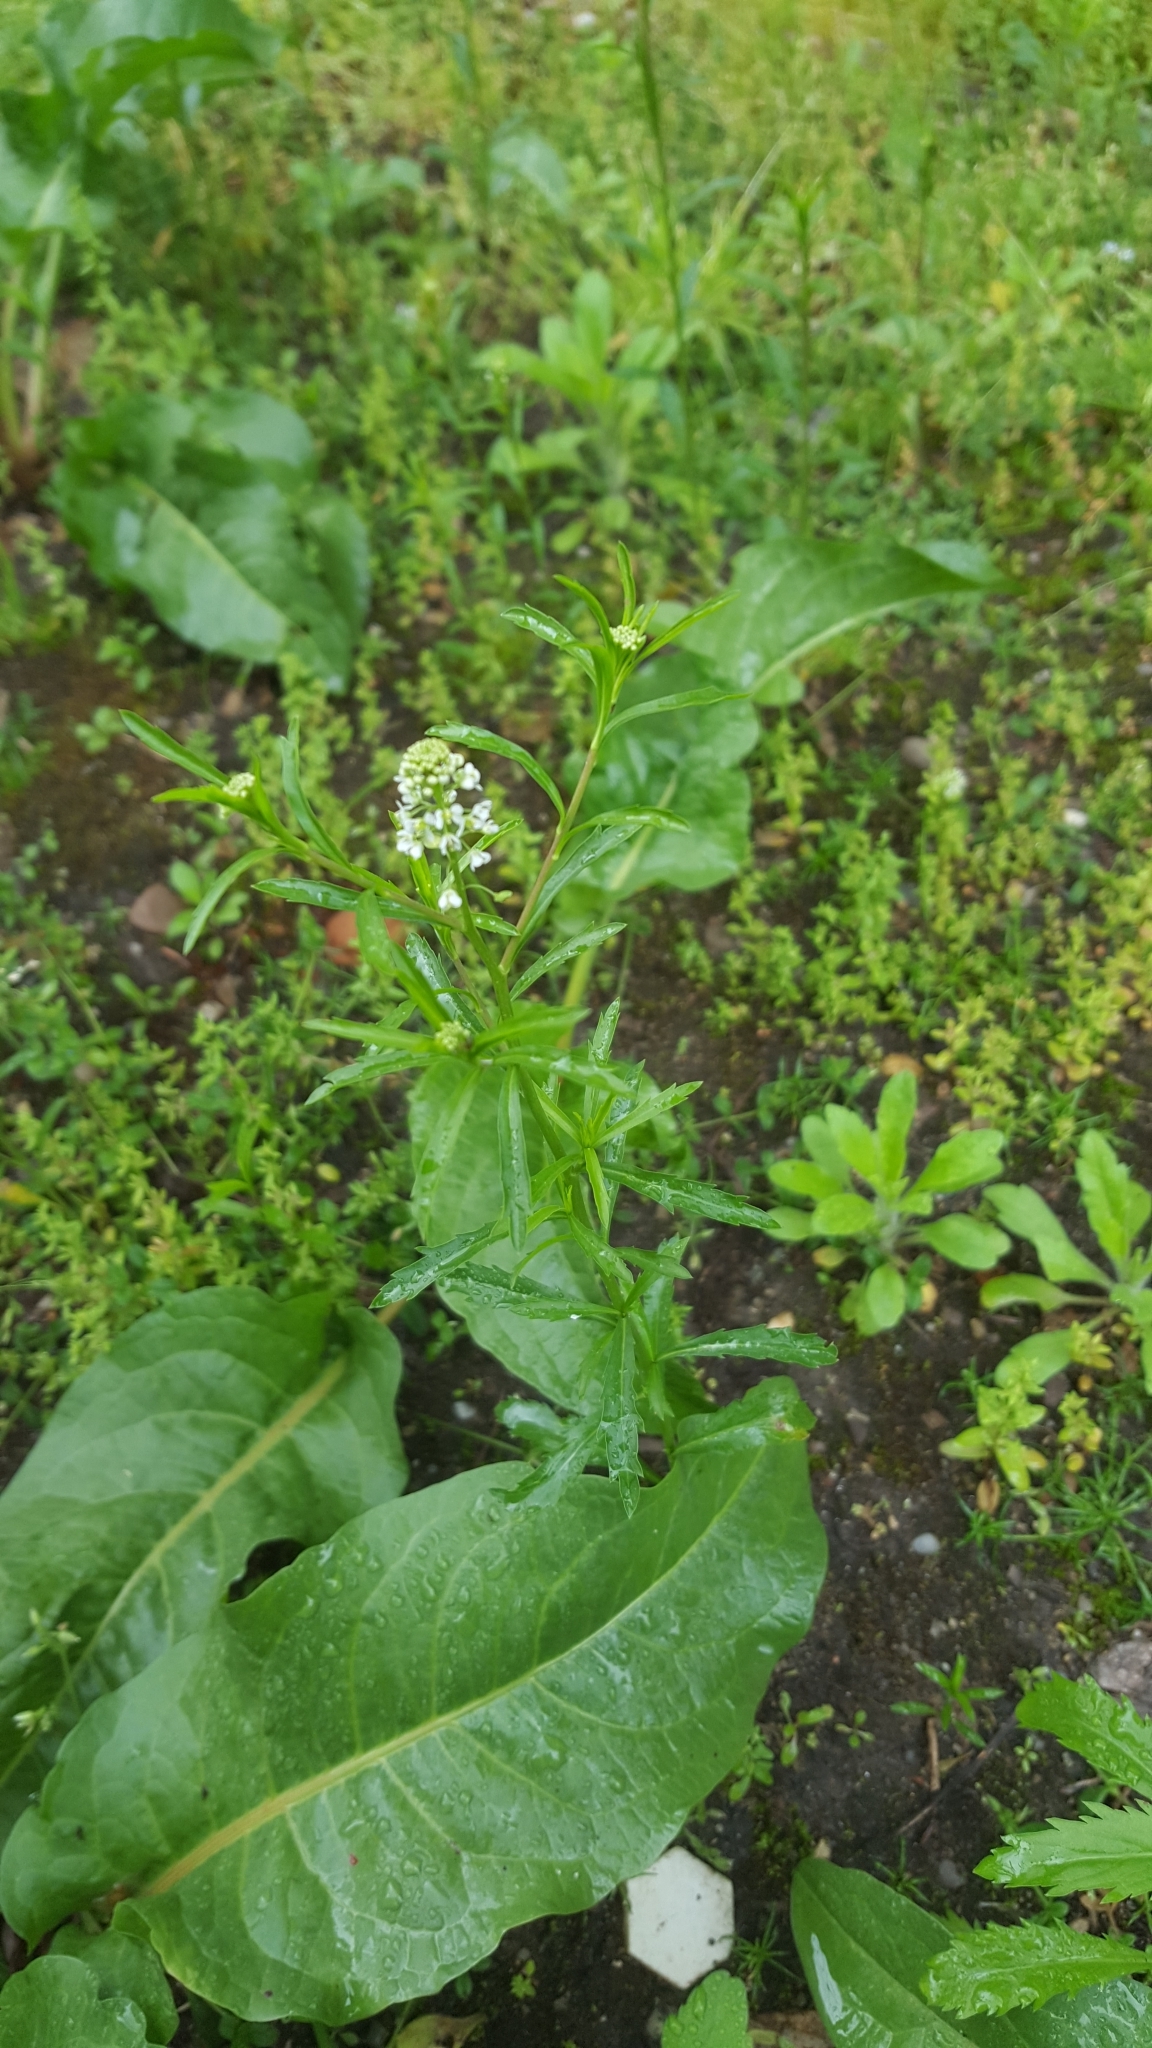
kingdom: Plantae
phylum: Tracheophyta
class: Magnoliopsida
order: Brassicales
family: Brassicaceae
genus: Lepidium
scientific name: Lepidium virginicum
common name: Least pepperwort
